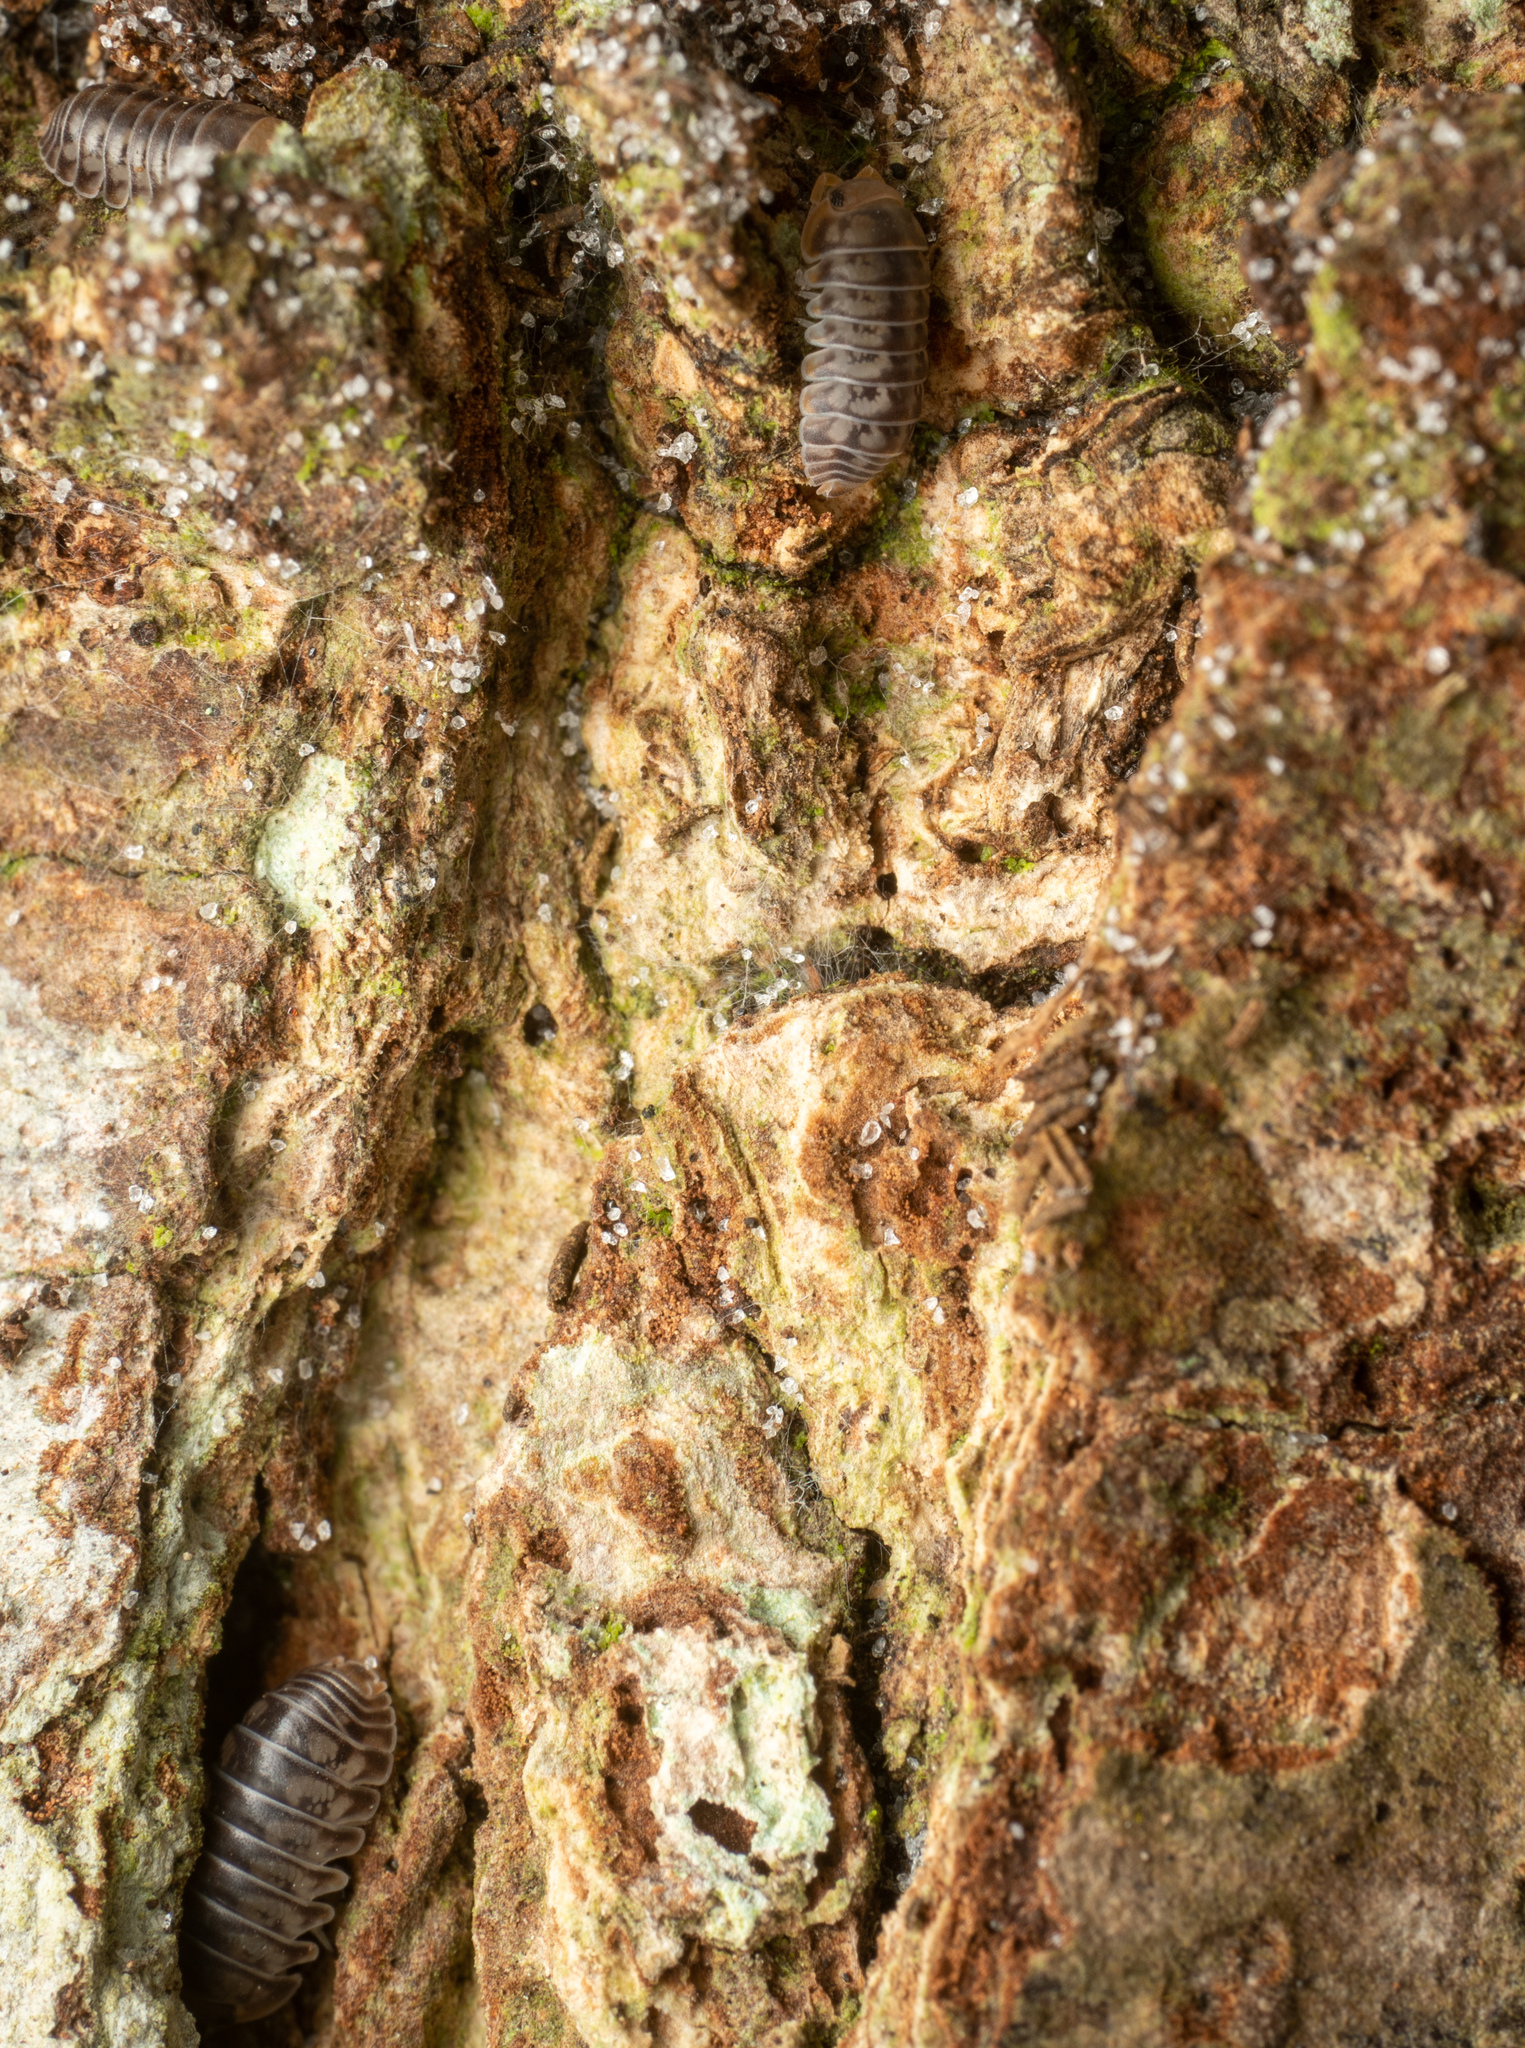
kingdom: Animalia
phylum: Arthropoda
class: Malacostraca
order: Isopoda
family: Armadillidae
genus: Venezillo
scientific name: Venezillo parvus
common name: Pillbug
